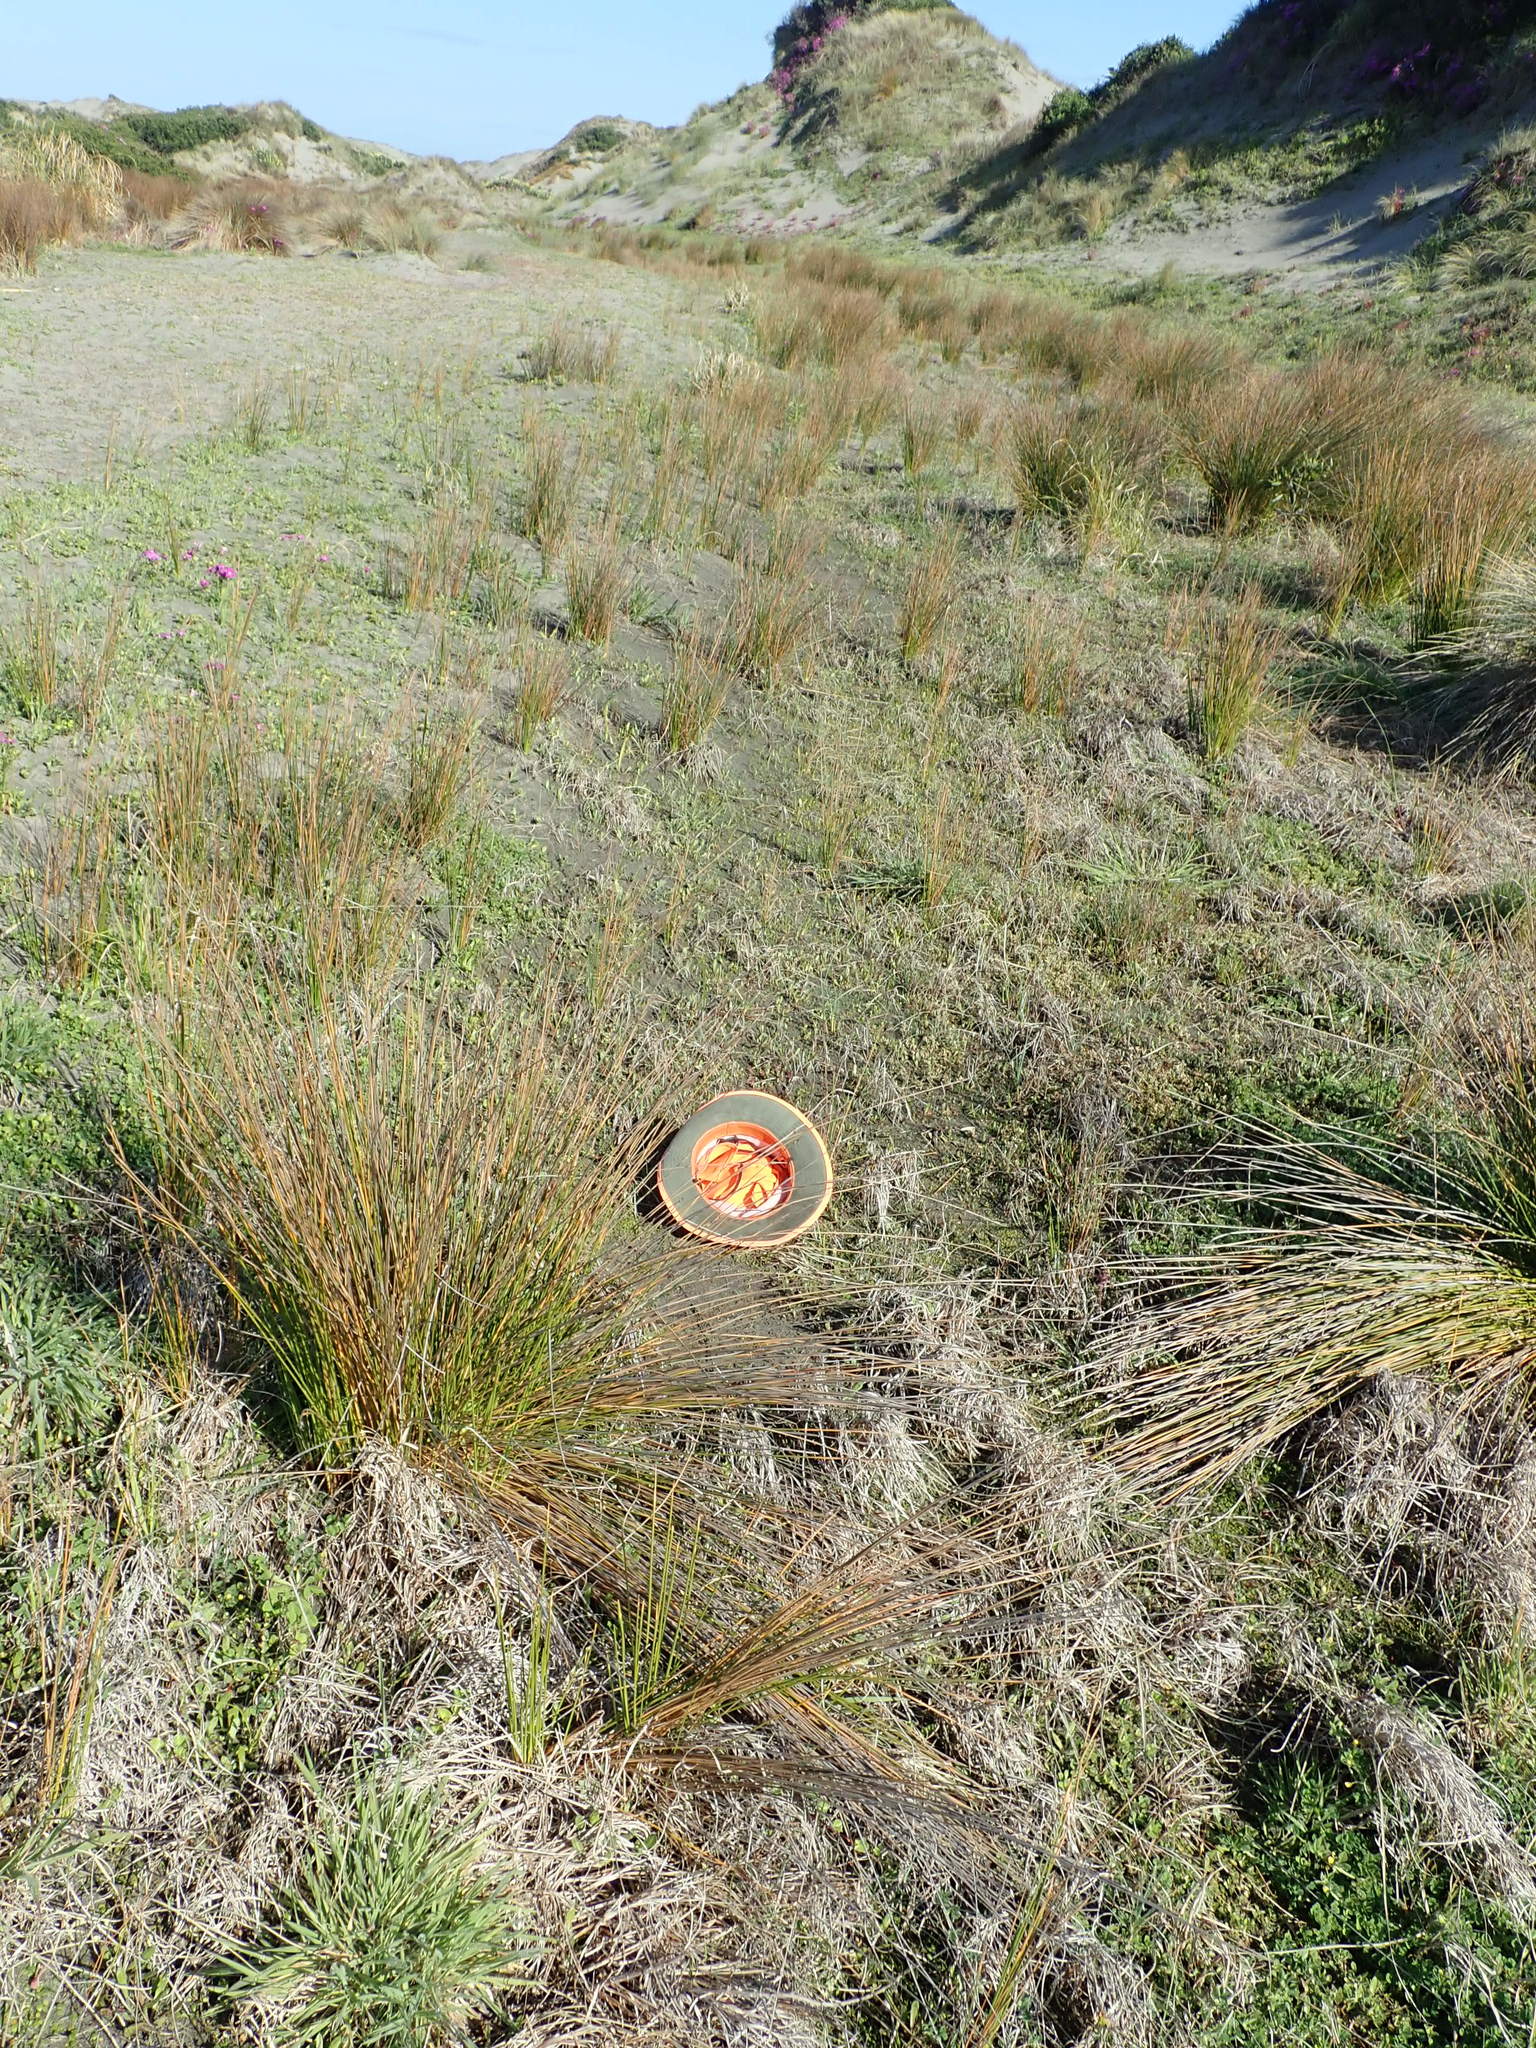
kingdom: Plantae
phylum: Tracheophyta
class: Magnoliopsida
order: Asterales
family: Goodeniaceae
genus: Goodenia
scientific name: Goodenia heenanii
